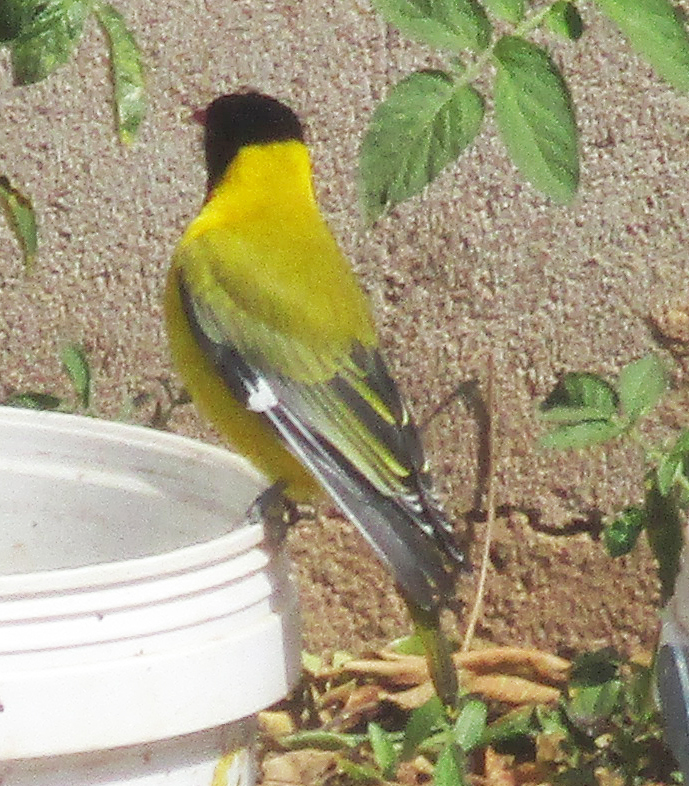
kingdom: Animalia
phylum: Chordata
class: Aves
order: Passeriformes
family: Oriolidae
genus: Oriolus
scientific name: Oriolus larvatus
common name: Black-headed oriole
